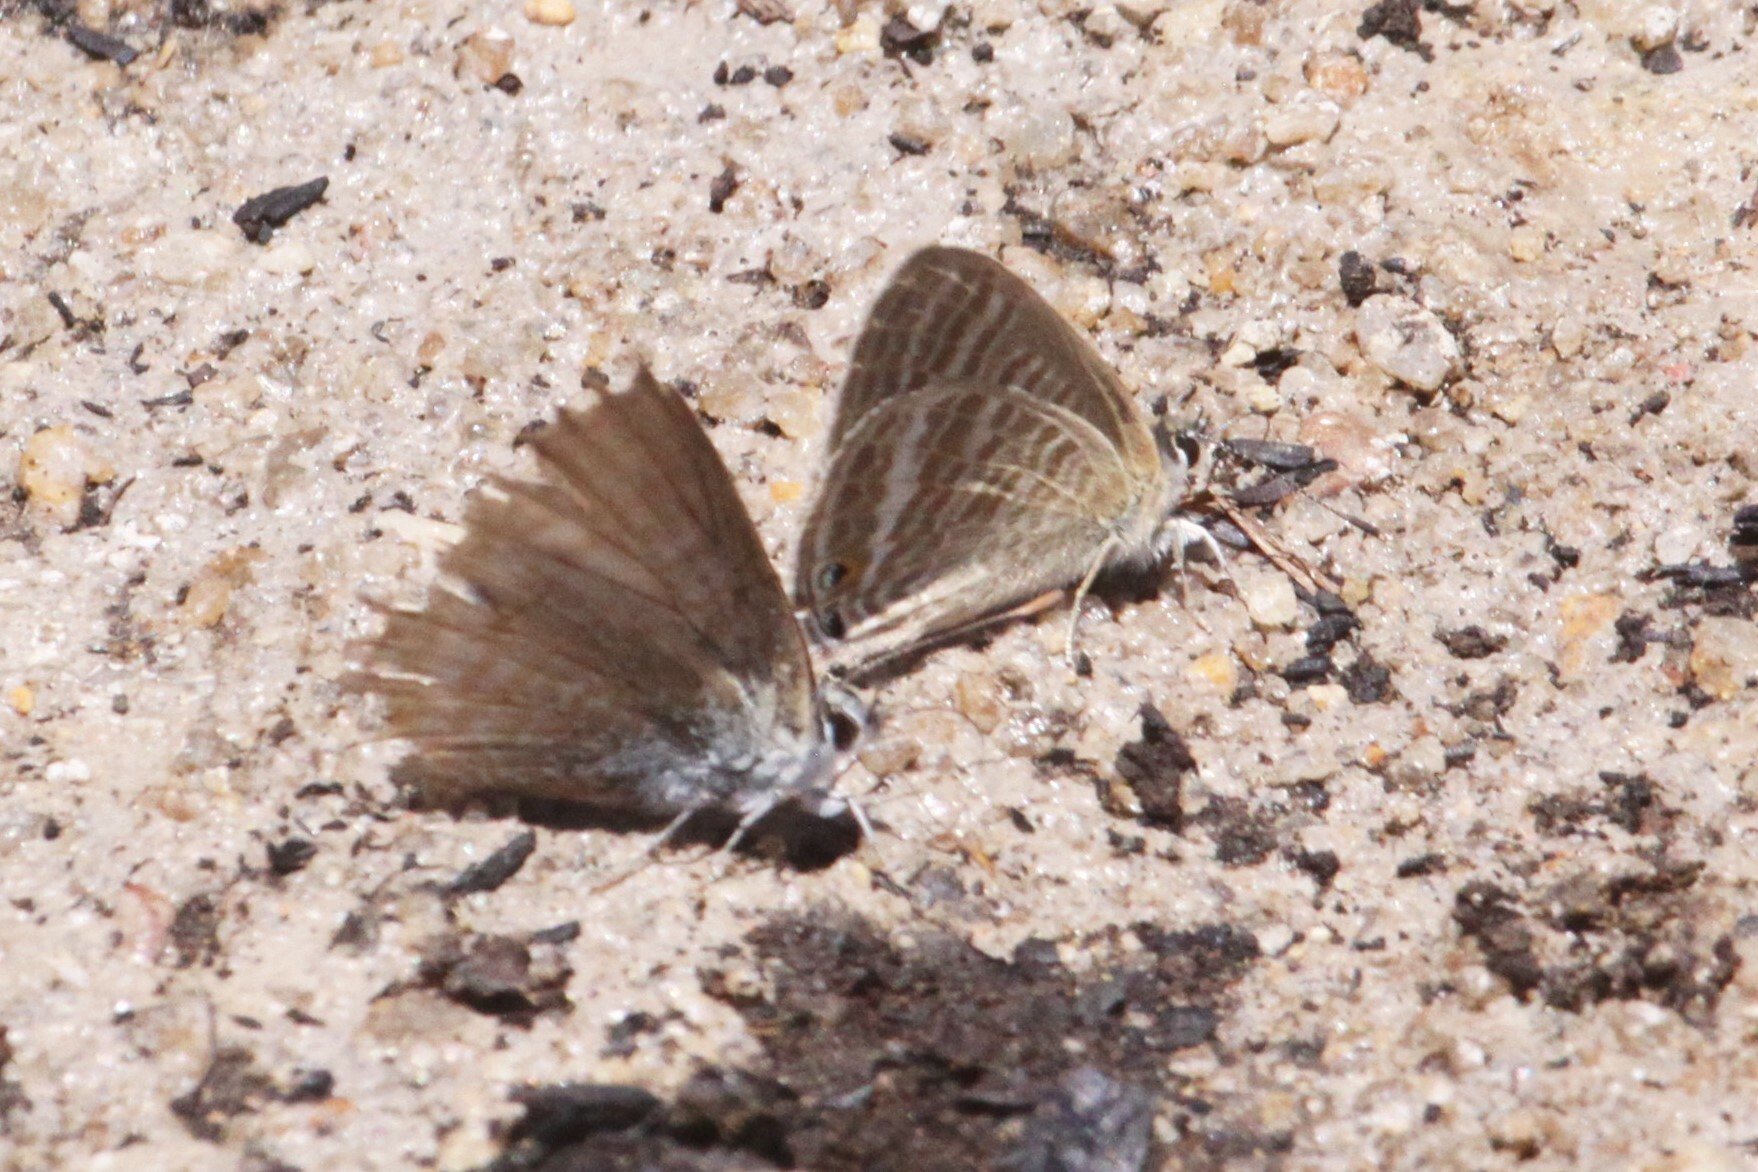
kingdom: Animalia
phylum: Arthropoda
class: Insecta
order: Lepidoptera
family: Lycaenidae
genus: Lampides
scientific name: Lampides boeticus
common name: Long-tailed blue
